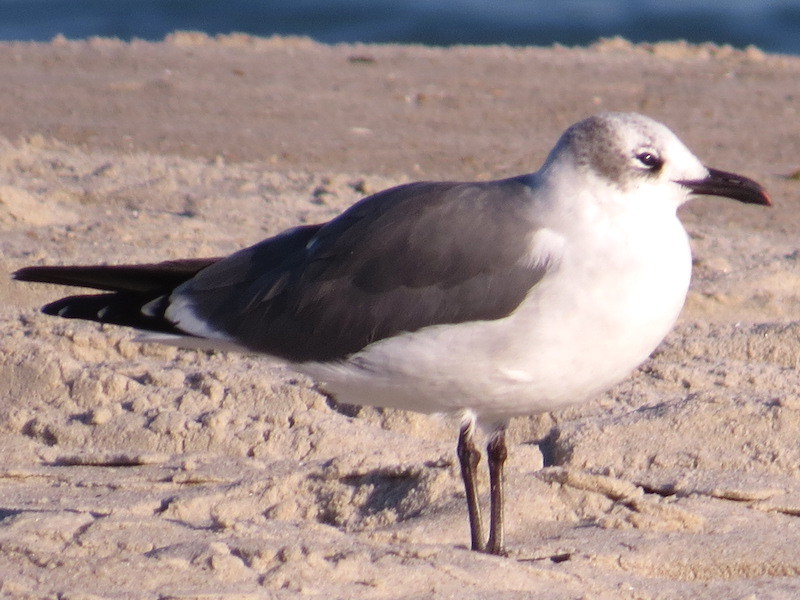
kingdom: Animalia
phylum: Chordata
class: Aves
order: Charadriiformes
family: Laridae
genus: Leucophaeus
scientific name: Leucophaeus atricilla
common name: Laughing gull
